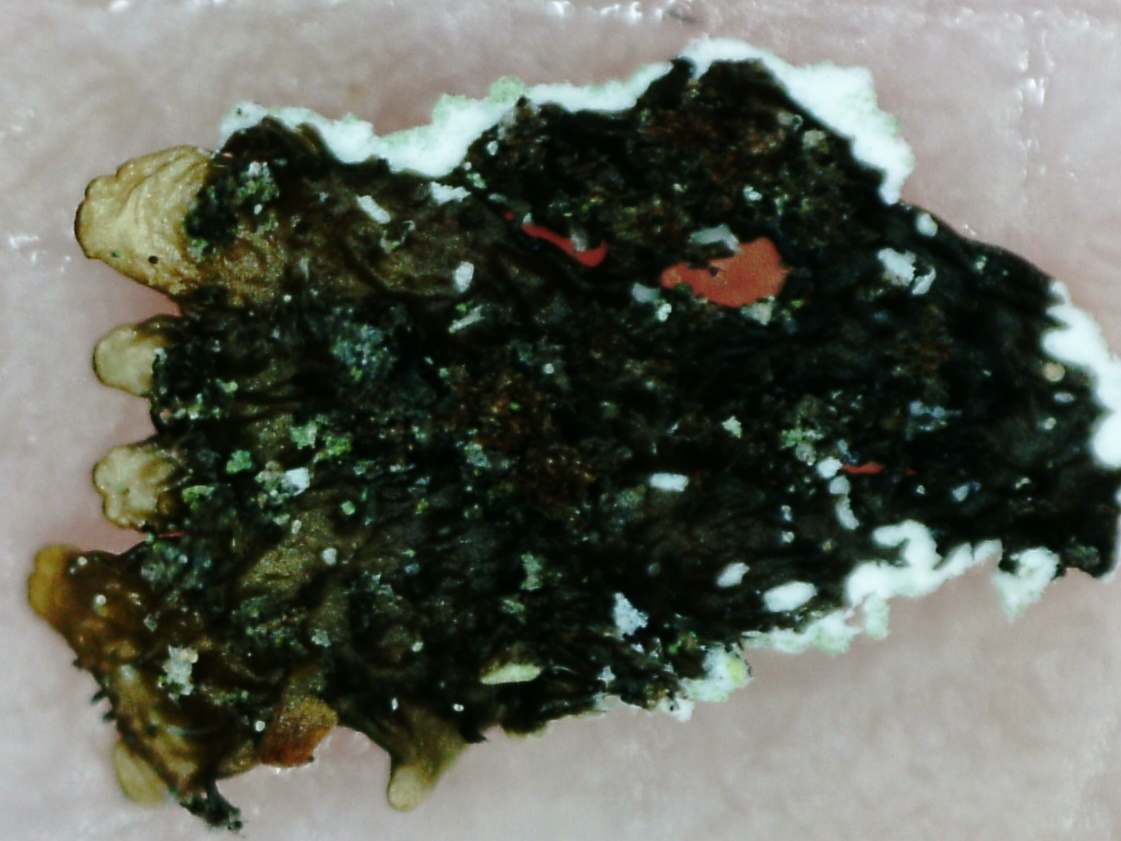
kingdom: Fungi
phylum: Ascomycota
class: Lecanoromycetes
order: Lecanorales
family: Parmeliaceae
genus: Parmeliopsis
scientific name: Parmeliopsis hyperopta
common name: Grey starburst lichen
